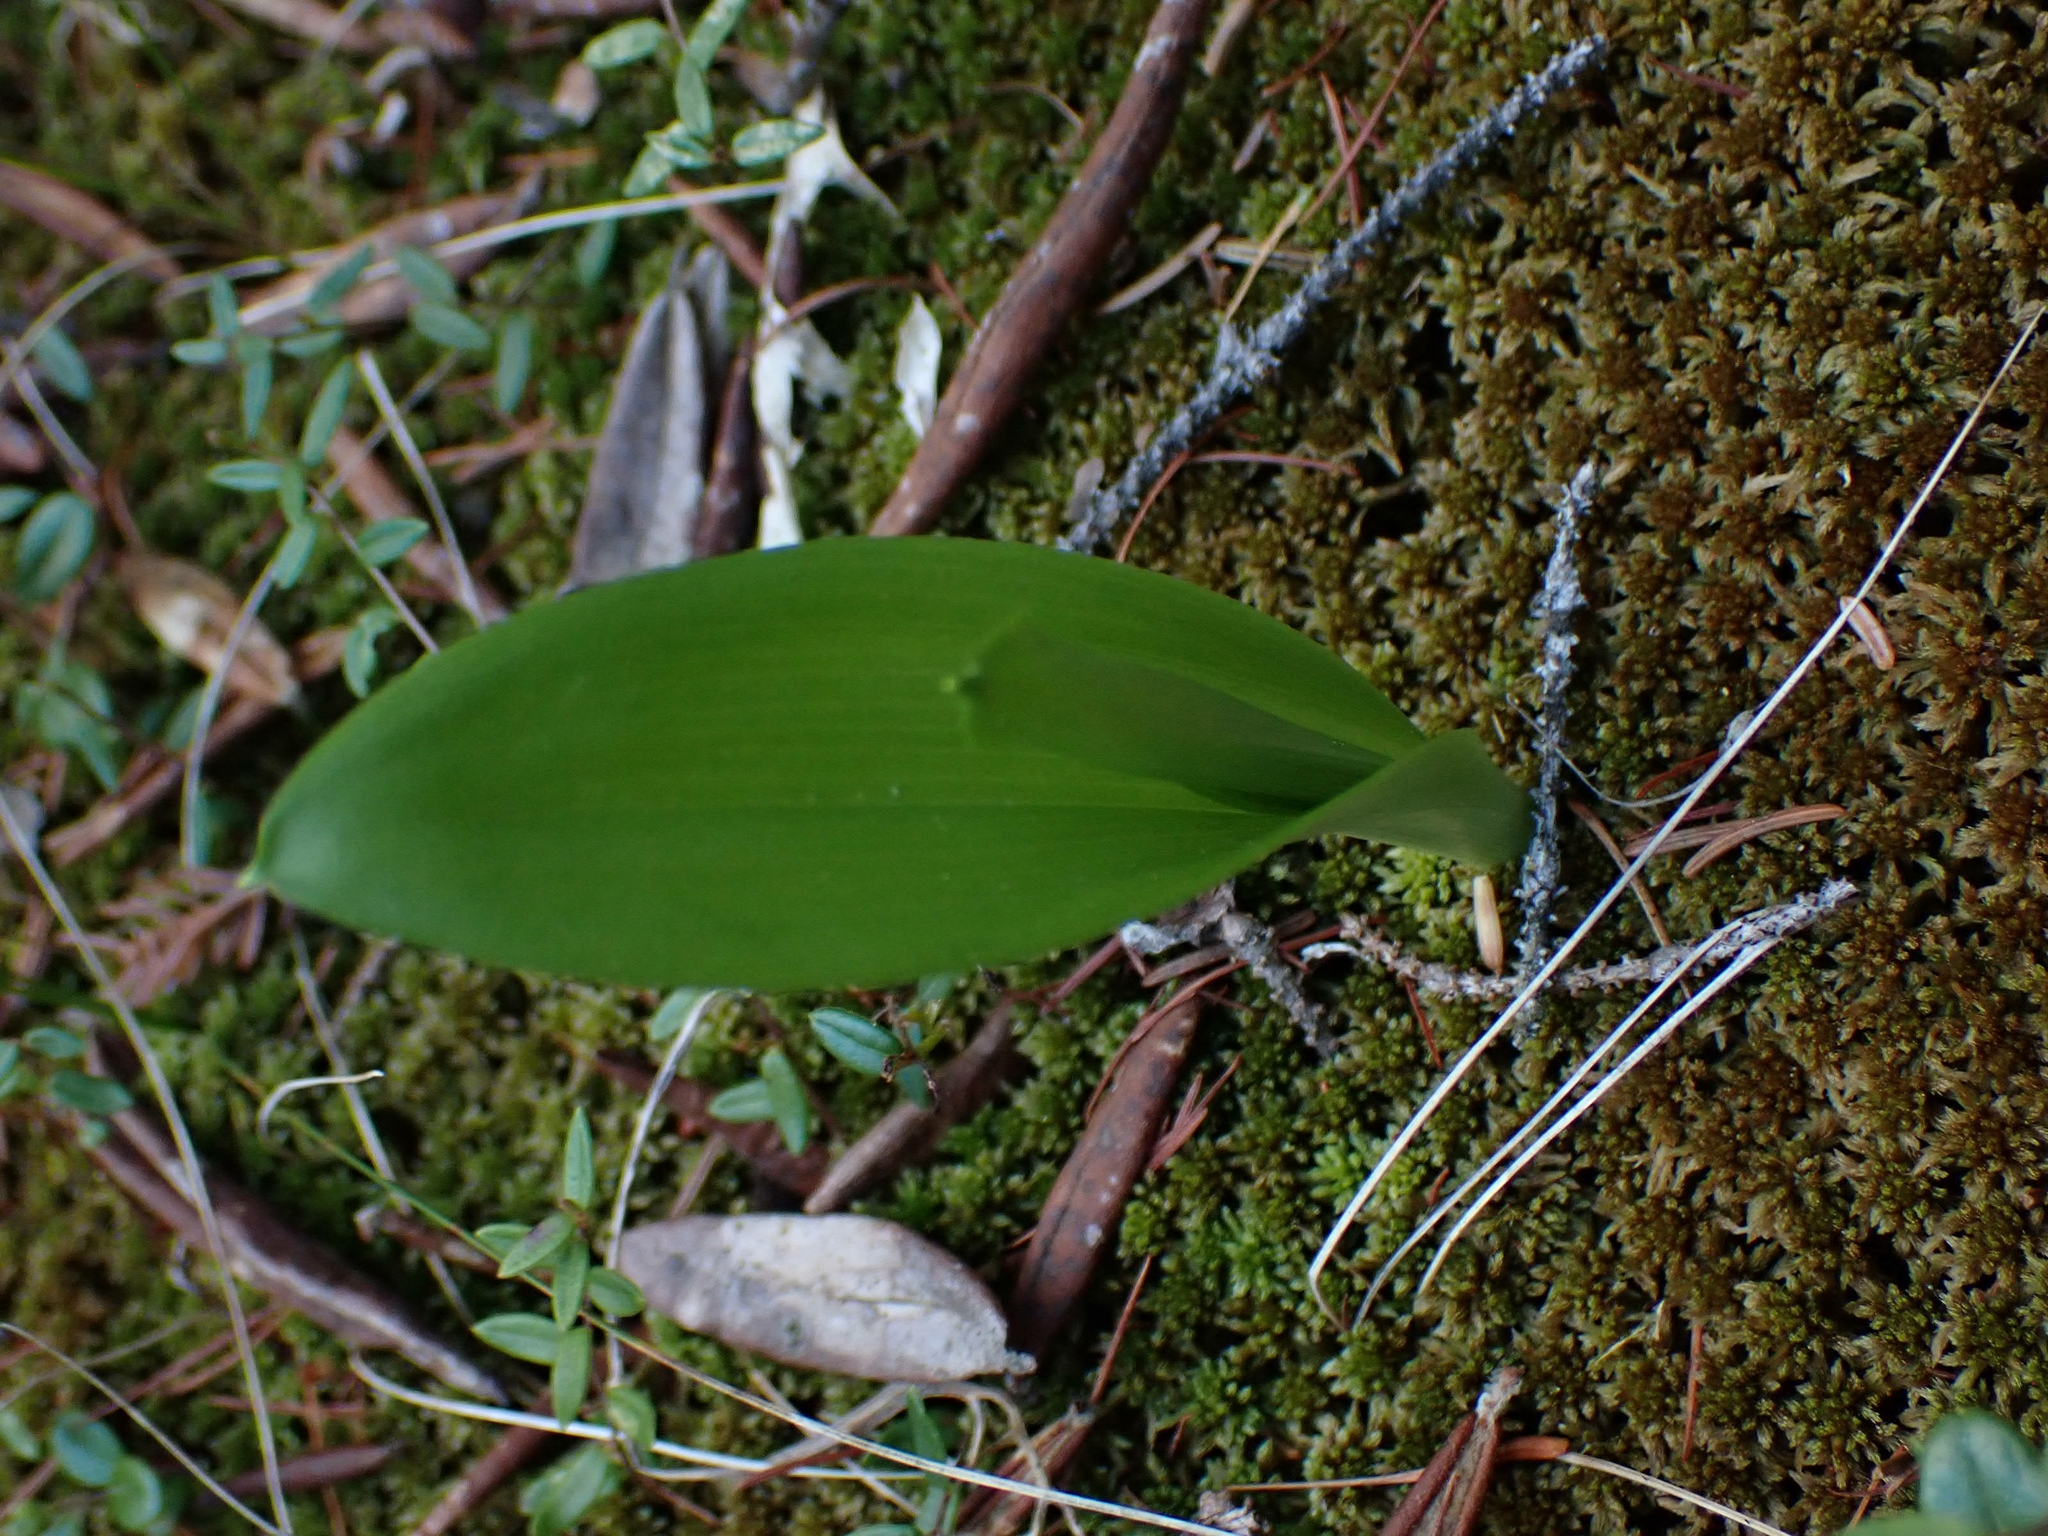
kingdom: Plantae
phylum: Tracheophyta
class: Liliopsida
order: Asparagales
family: Asparagaceae
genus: Maianthemum
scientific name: Maianthemum trifolium
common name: Swamp false solomon's seal
